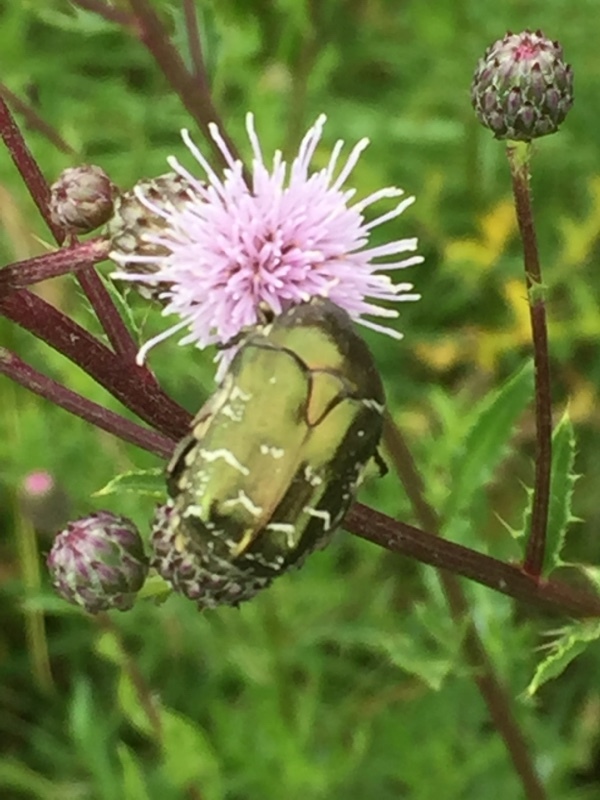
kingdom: Animalia
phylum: Arthropoda
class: Insecta
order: Coleoptera
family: Scarabaeidae
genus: Protaetia
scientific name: Protaetia cuprea
